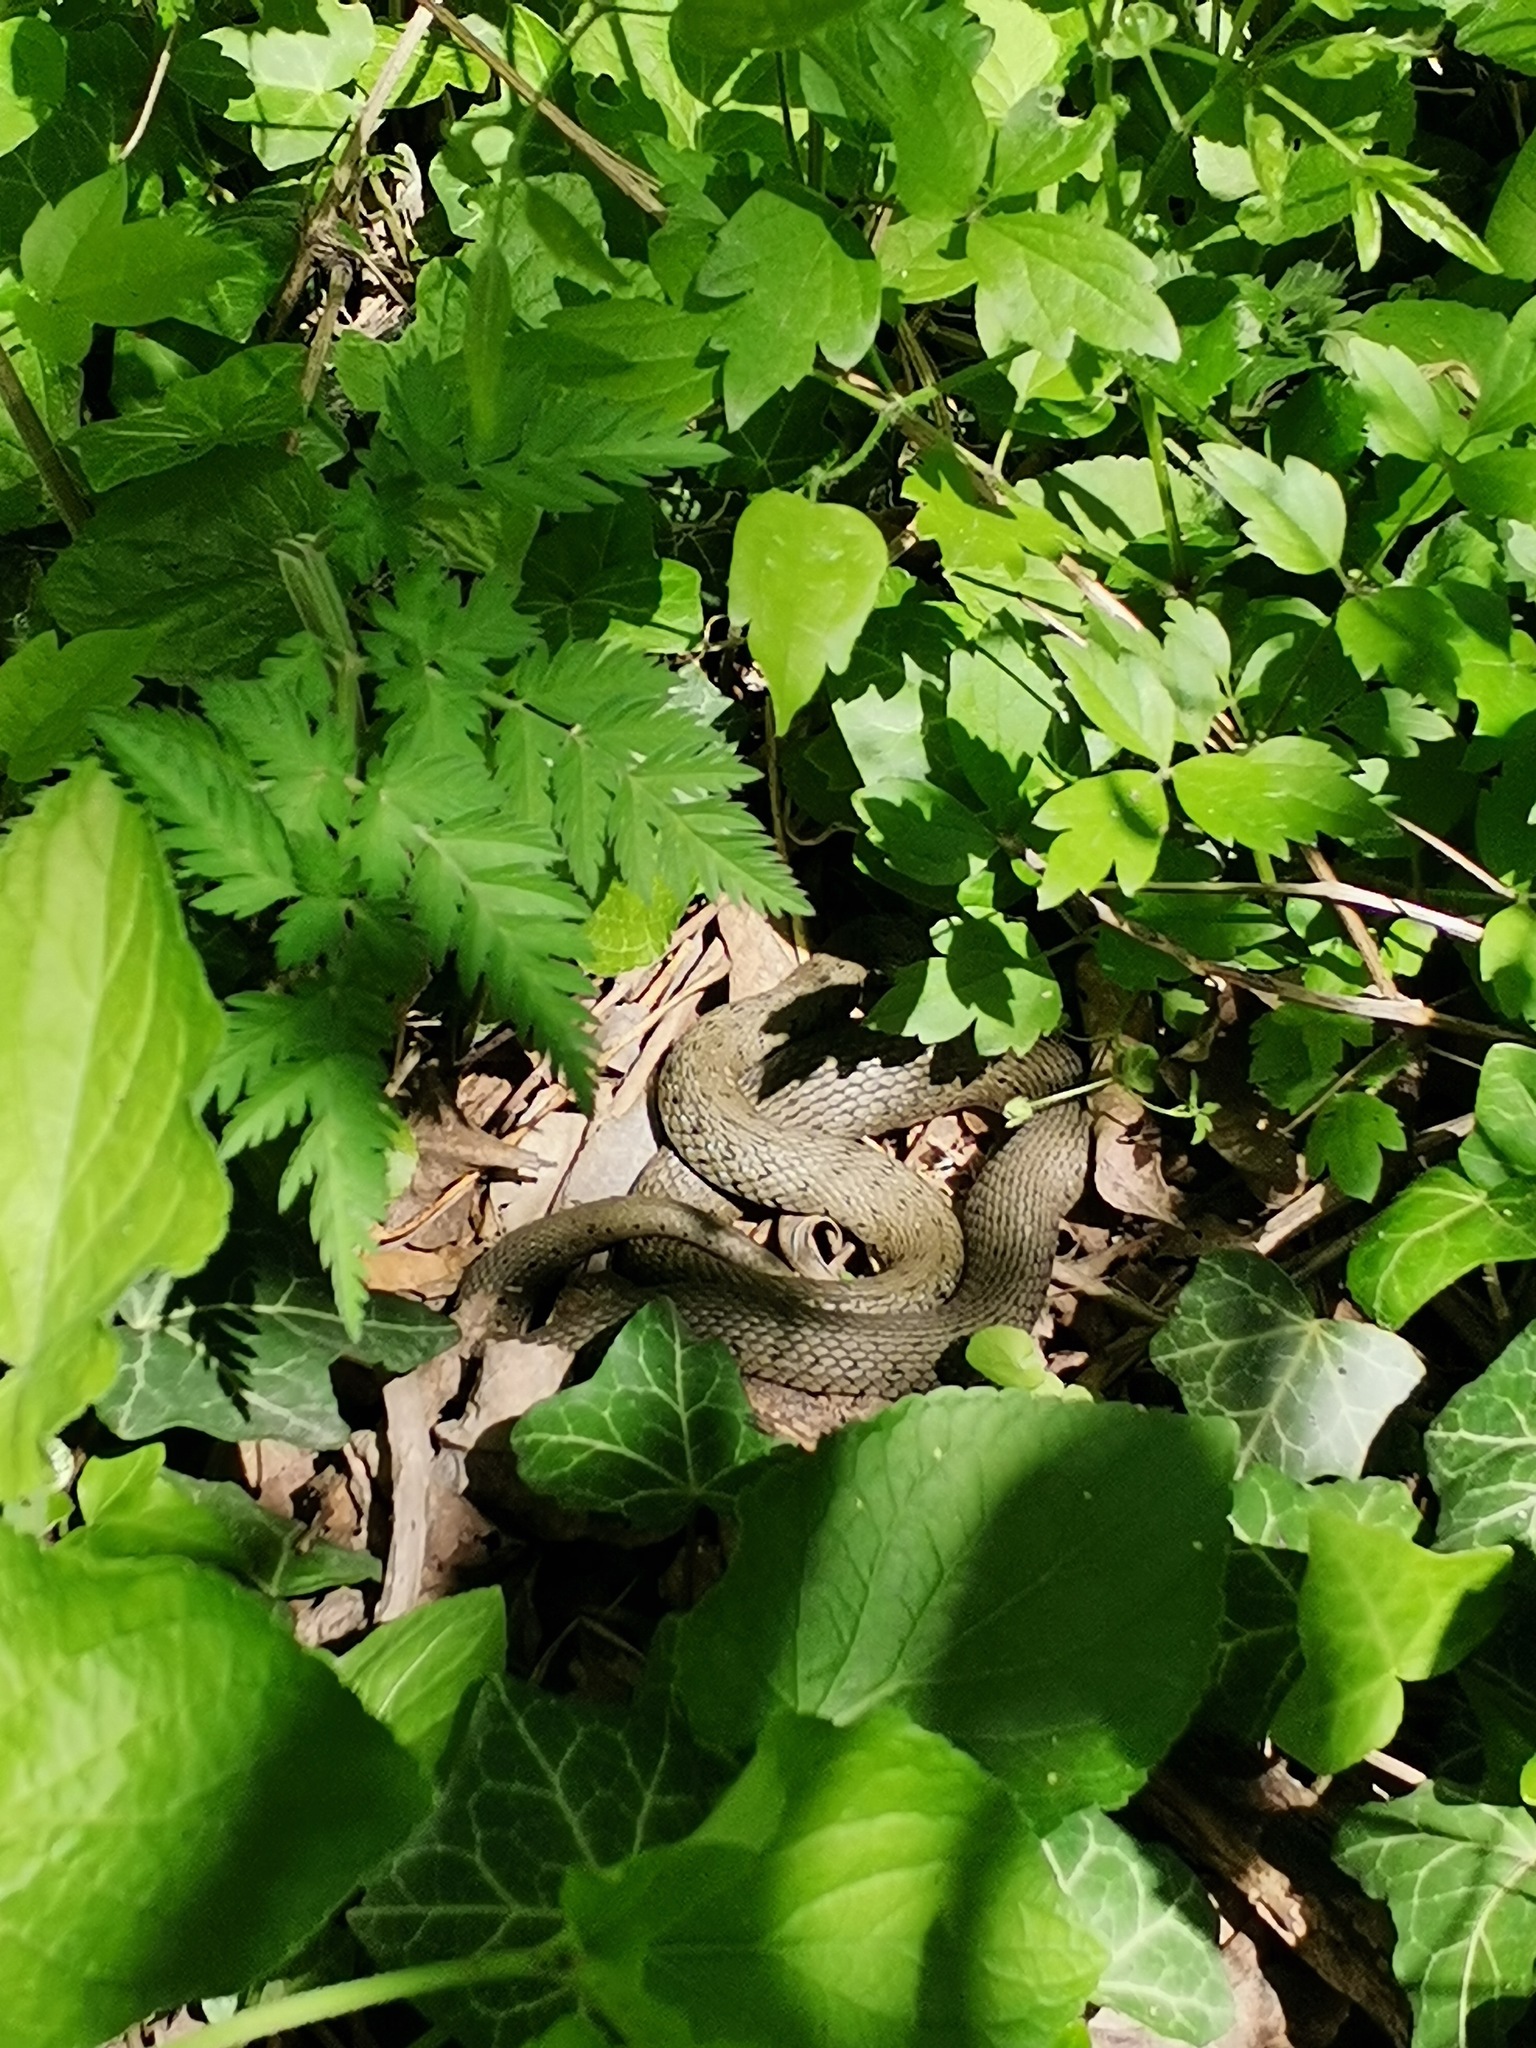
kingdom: Animalia
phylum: Chordata
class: Squamata
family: Colubridae
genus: Natrix
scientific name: Natrix natrix
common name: Grass snake
